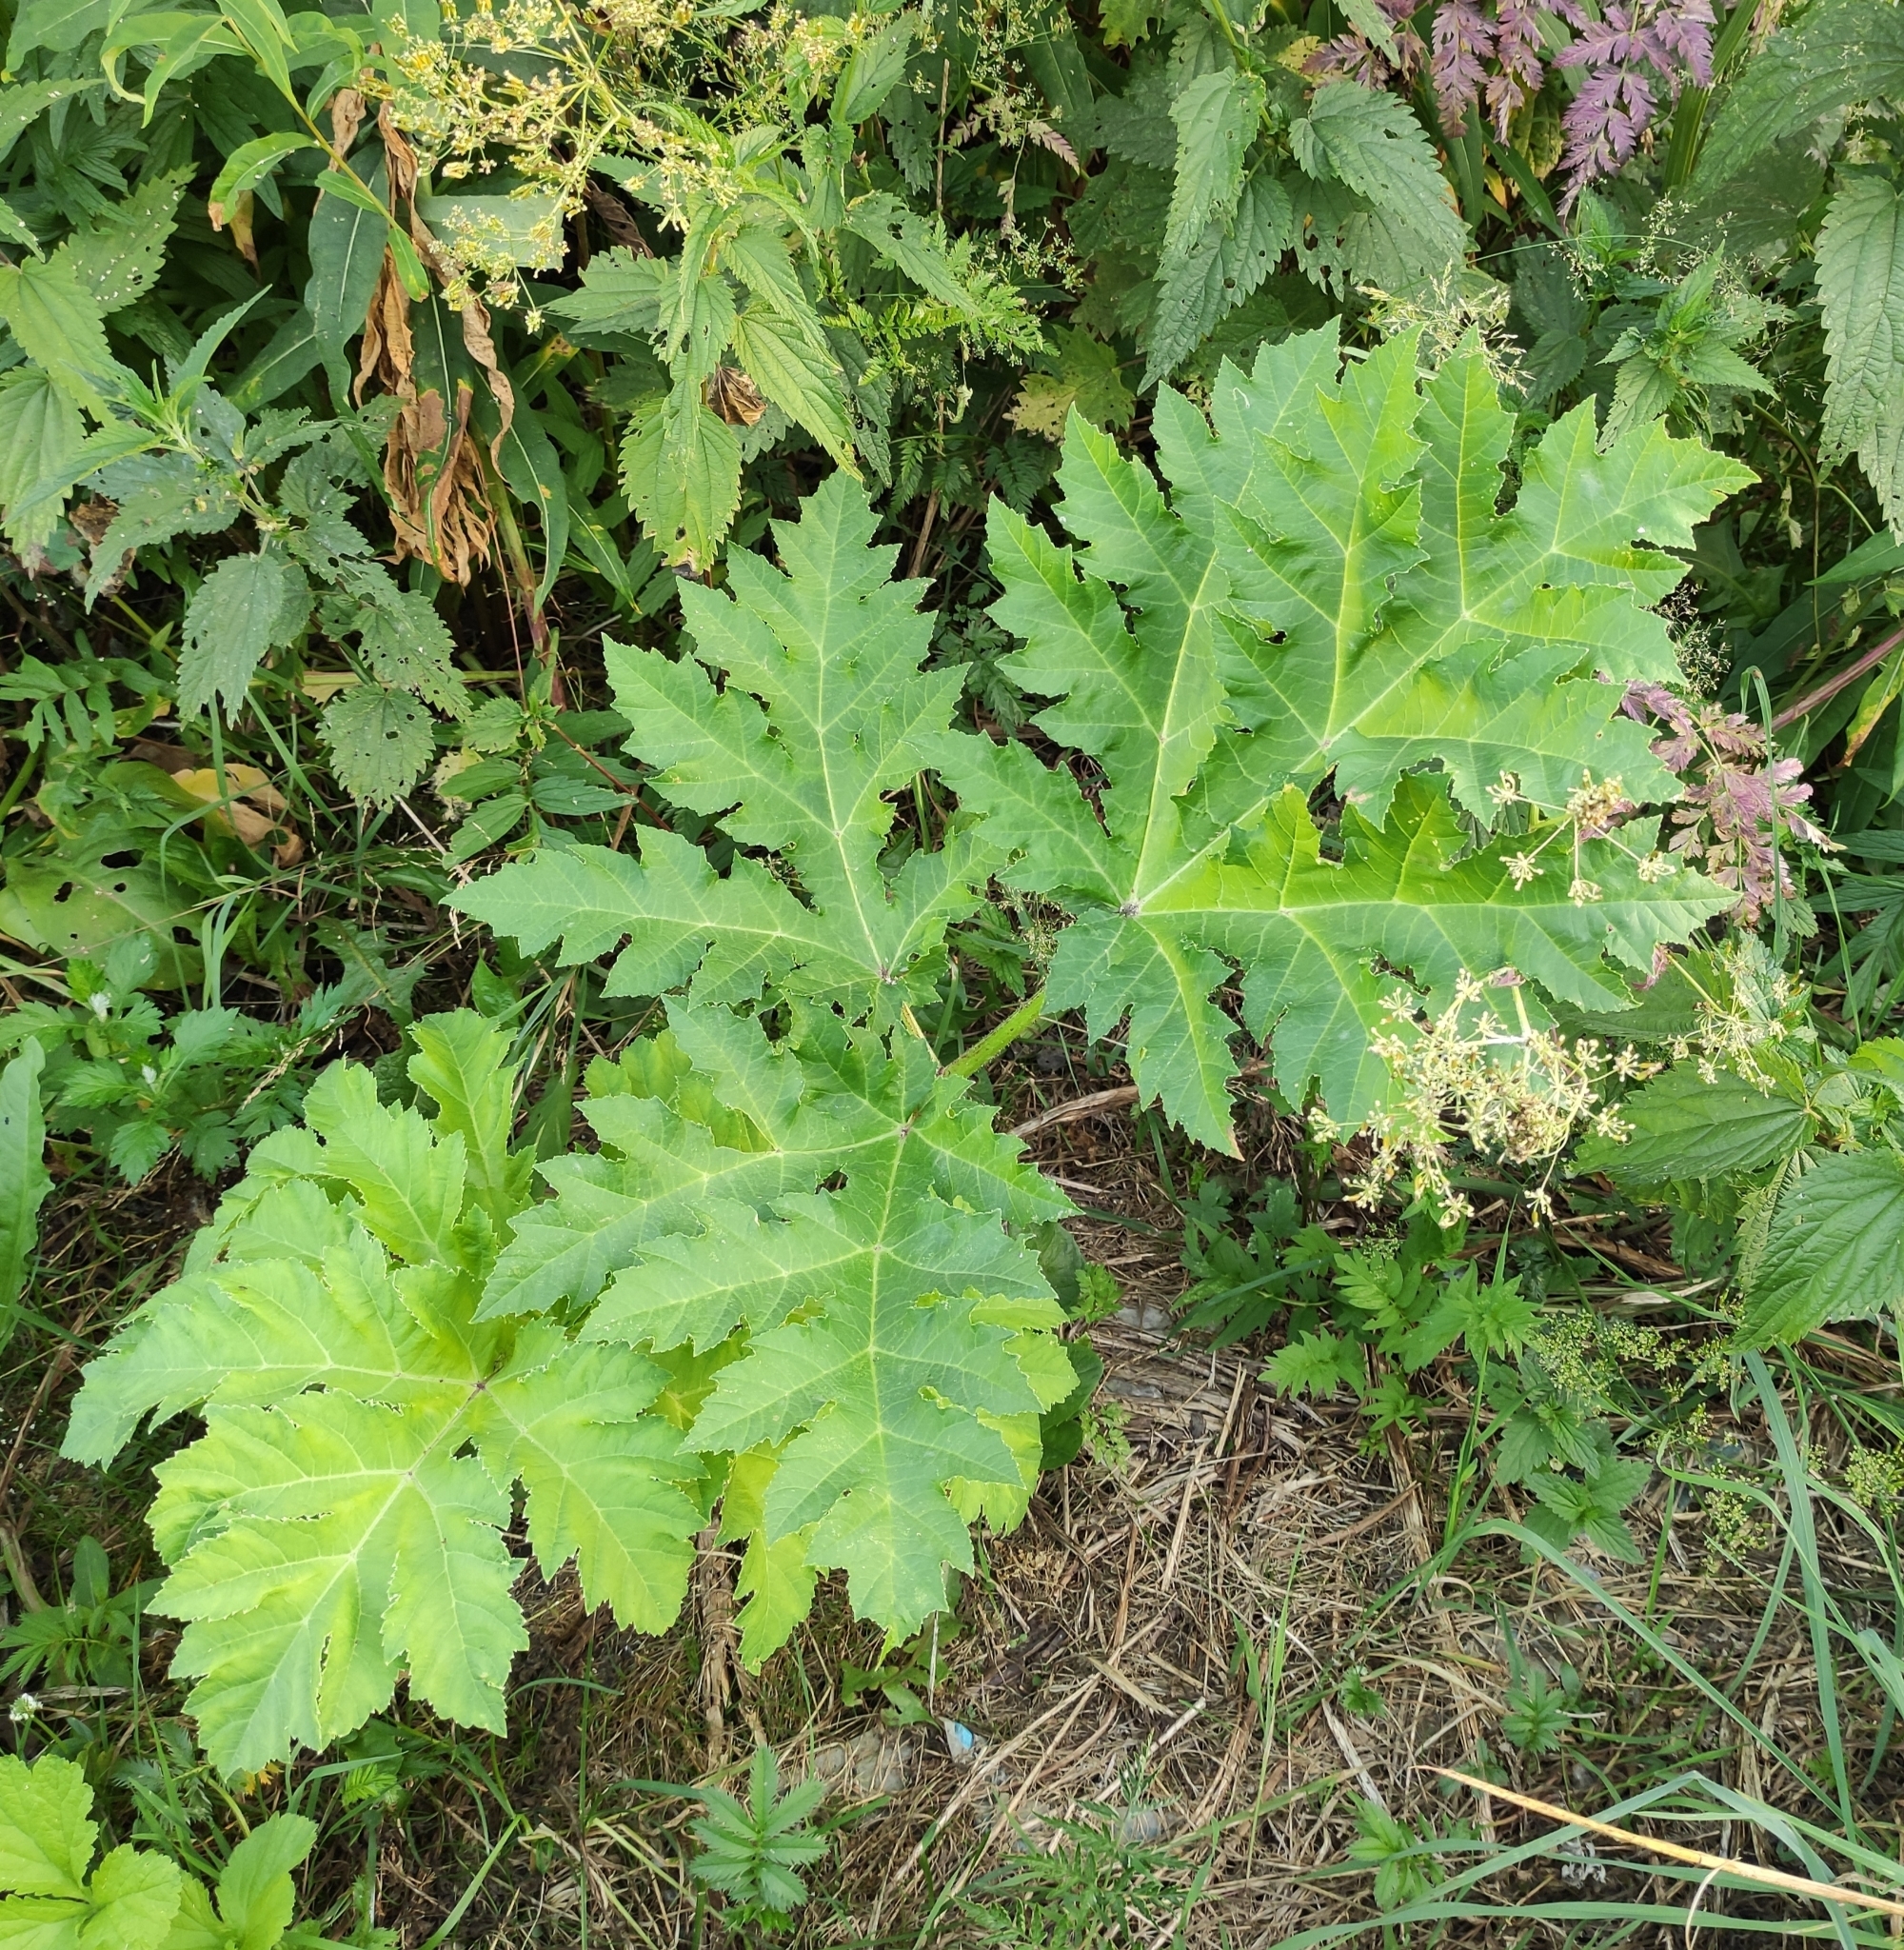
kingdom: Plantae
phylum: Tracheophyta
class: Magnoliopsida
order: Apiales
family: Apiaceae
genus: Heracleum
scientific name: Heracleum sosnowskyi
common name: Sosnowsky's hogweed
